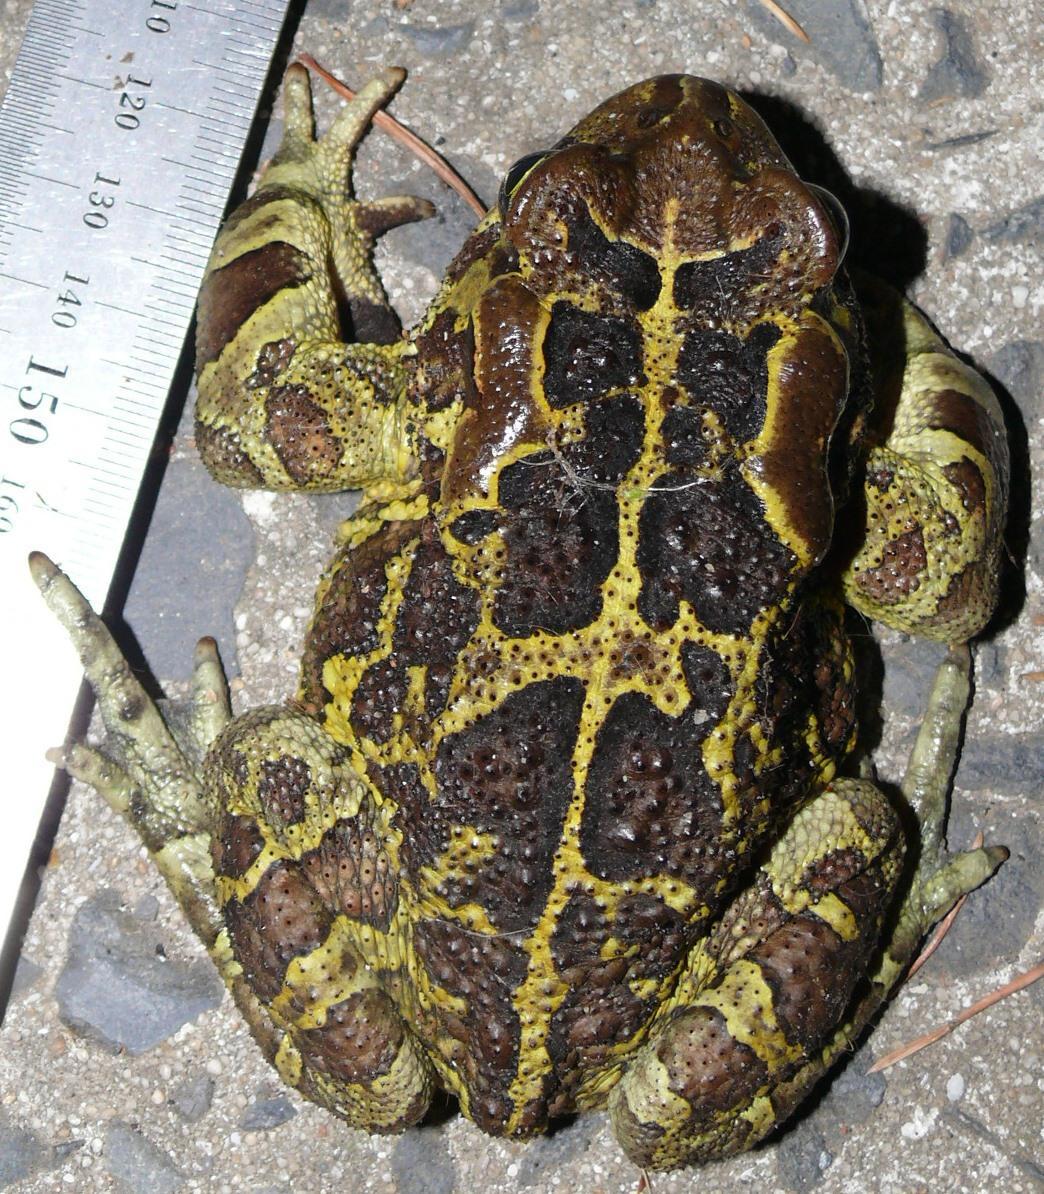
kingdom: Animalia
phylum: Chordata
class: Amphibia
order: Anura
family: Bufonidae
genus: Sclerophrys
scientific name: Sclerophrys pantherina
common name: Panther toad
